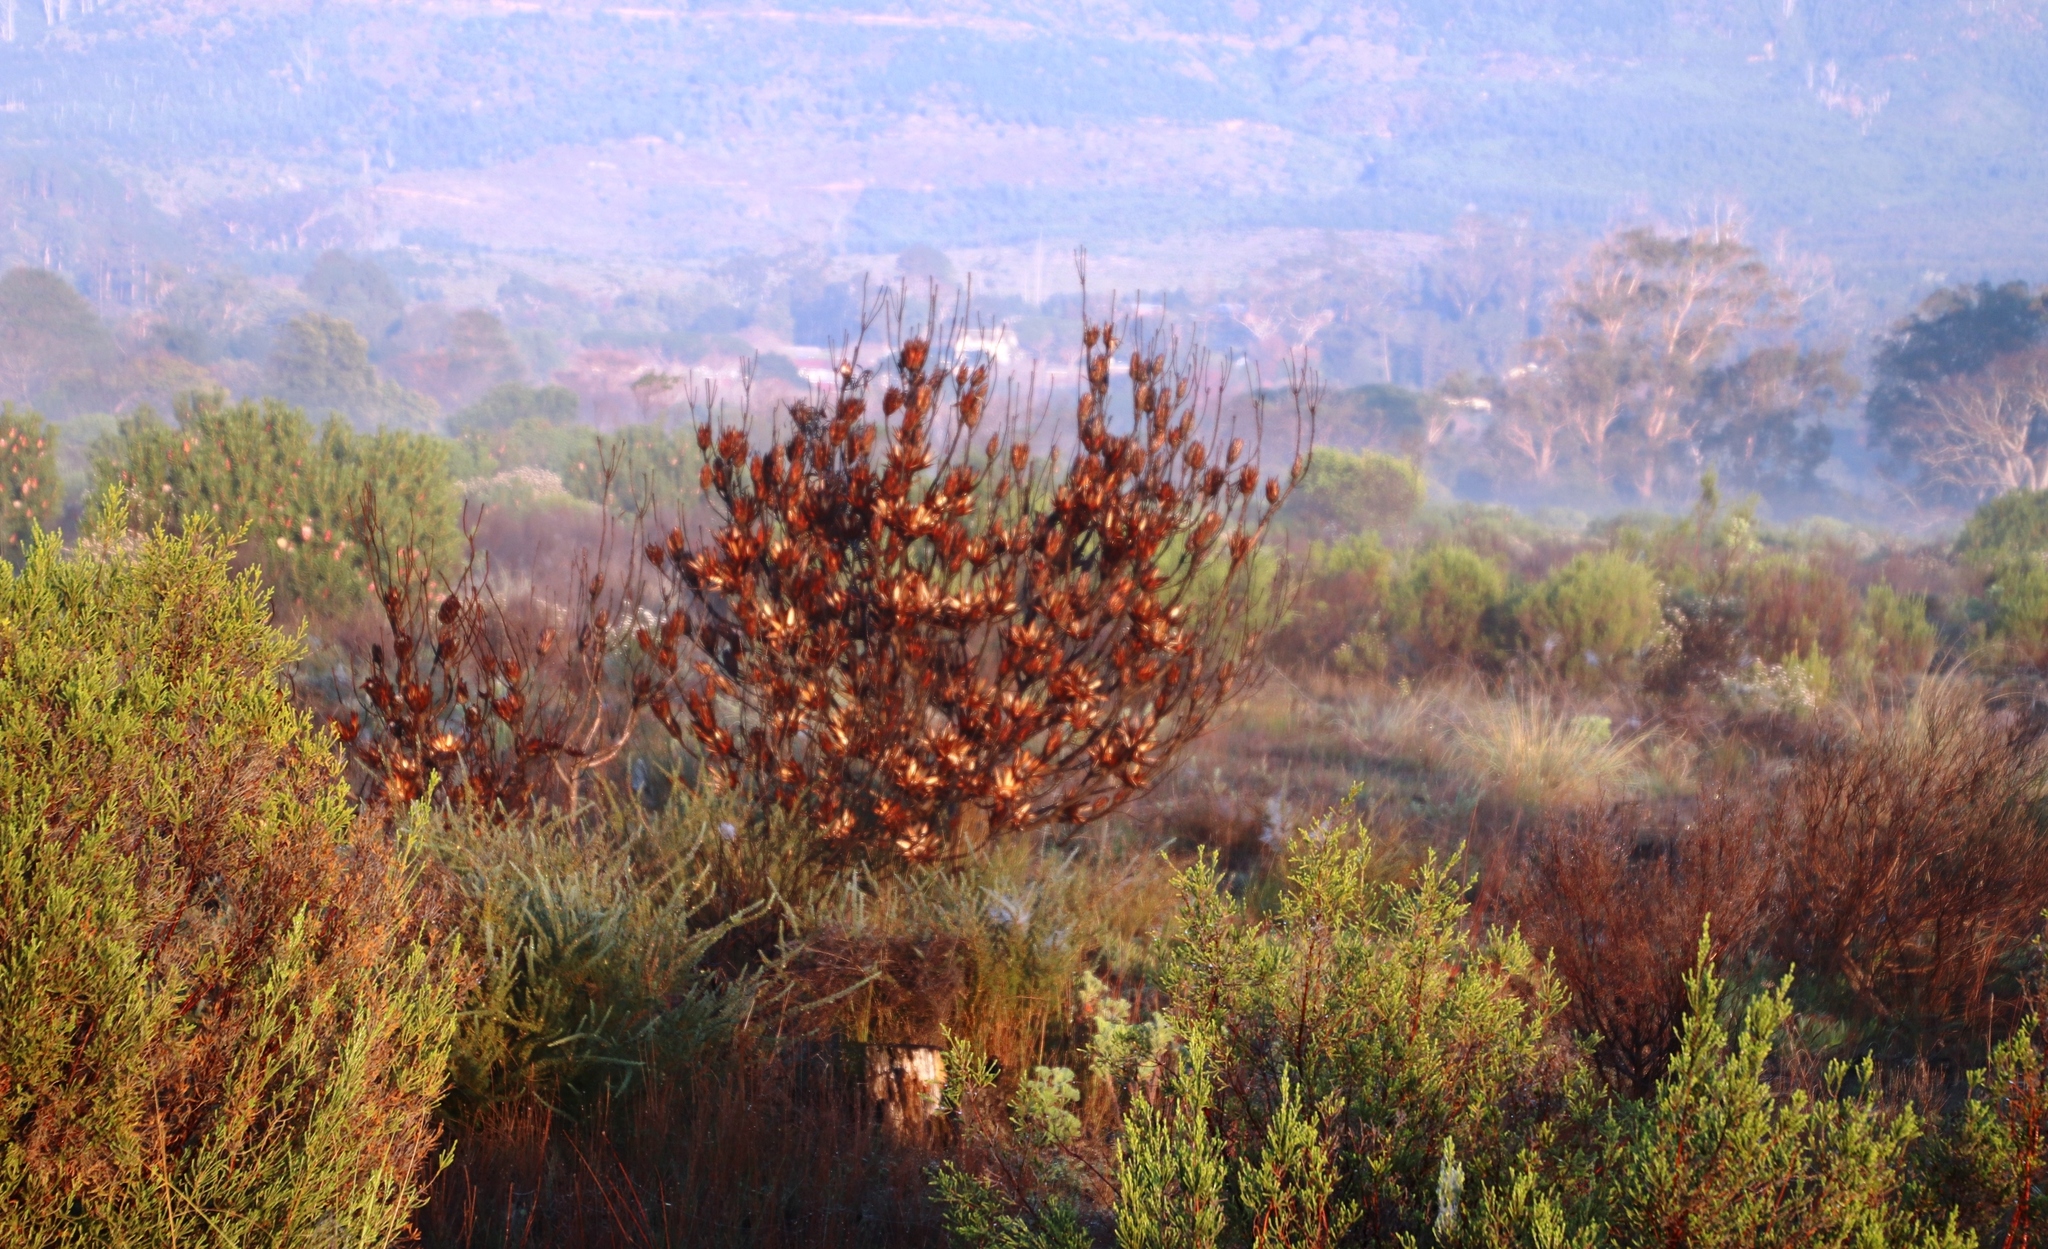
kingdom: Plantae
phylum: Tracheophyta
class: Magnoliopsida
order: Proteales
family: Proteaceae
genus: Protea
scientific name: Protea repens
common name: Sugarbush
